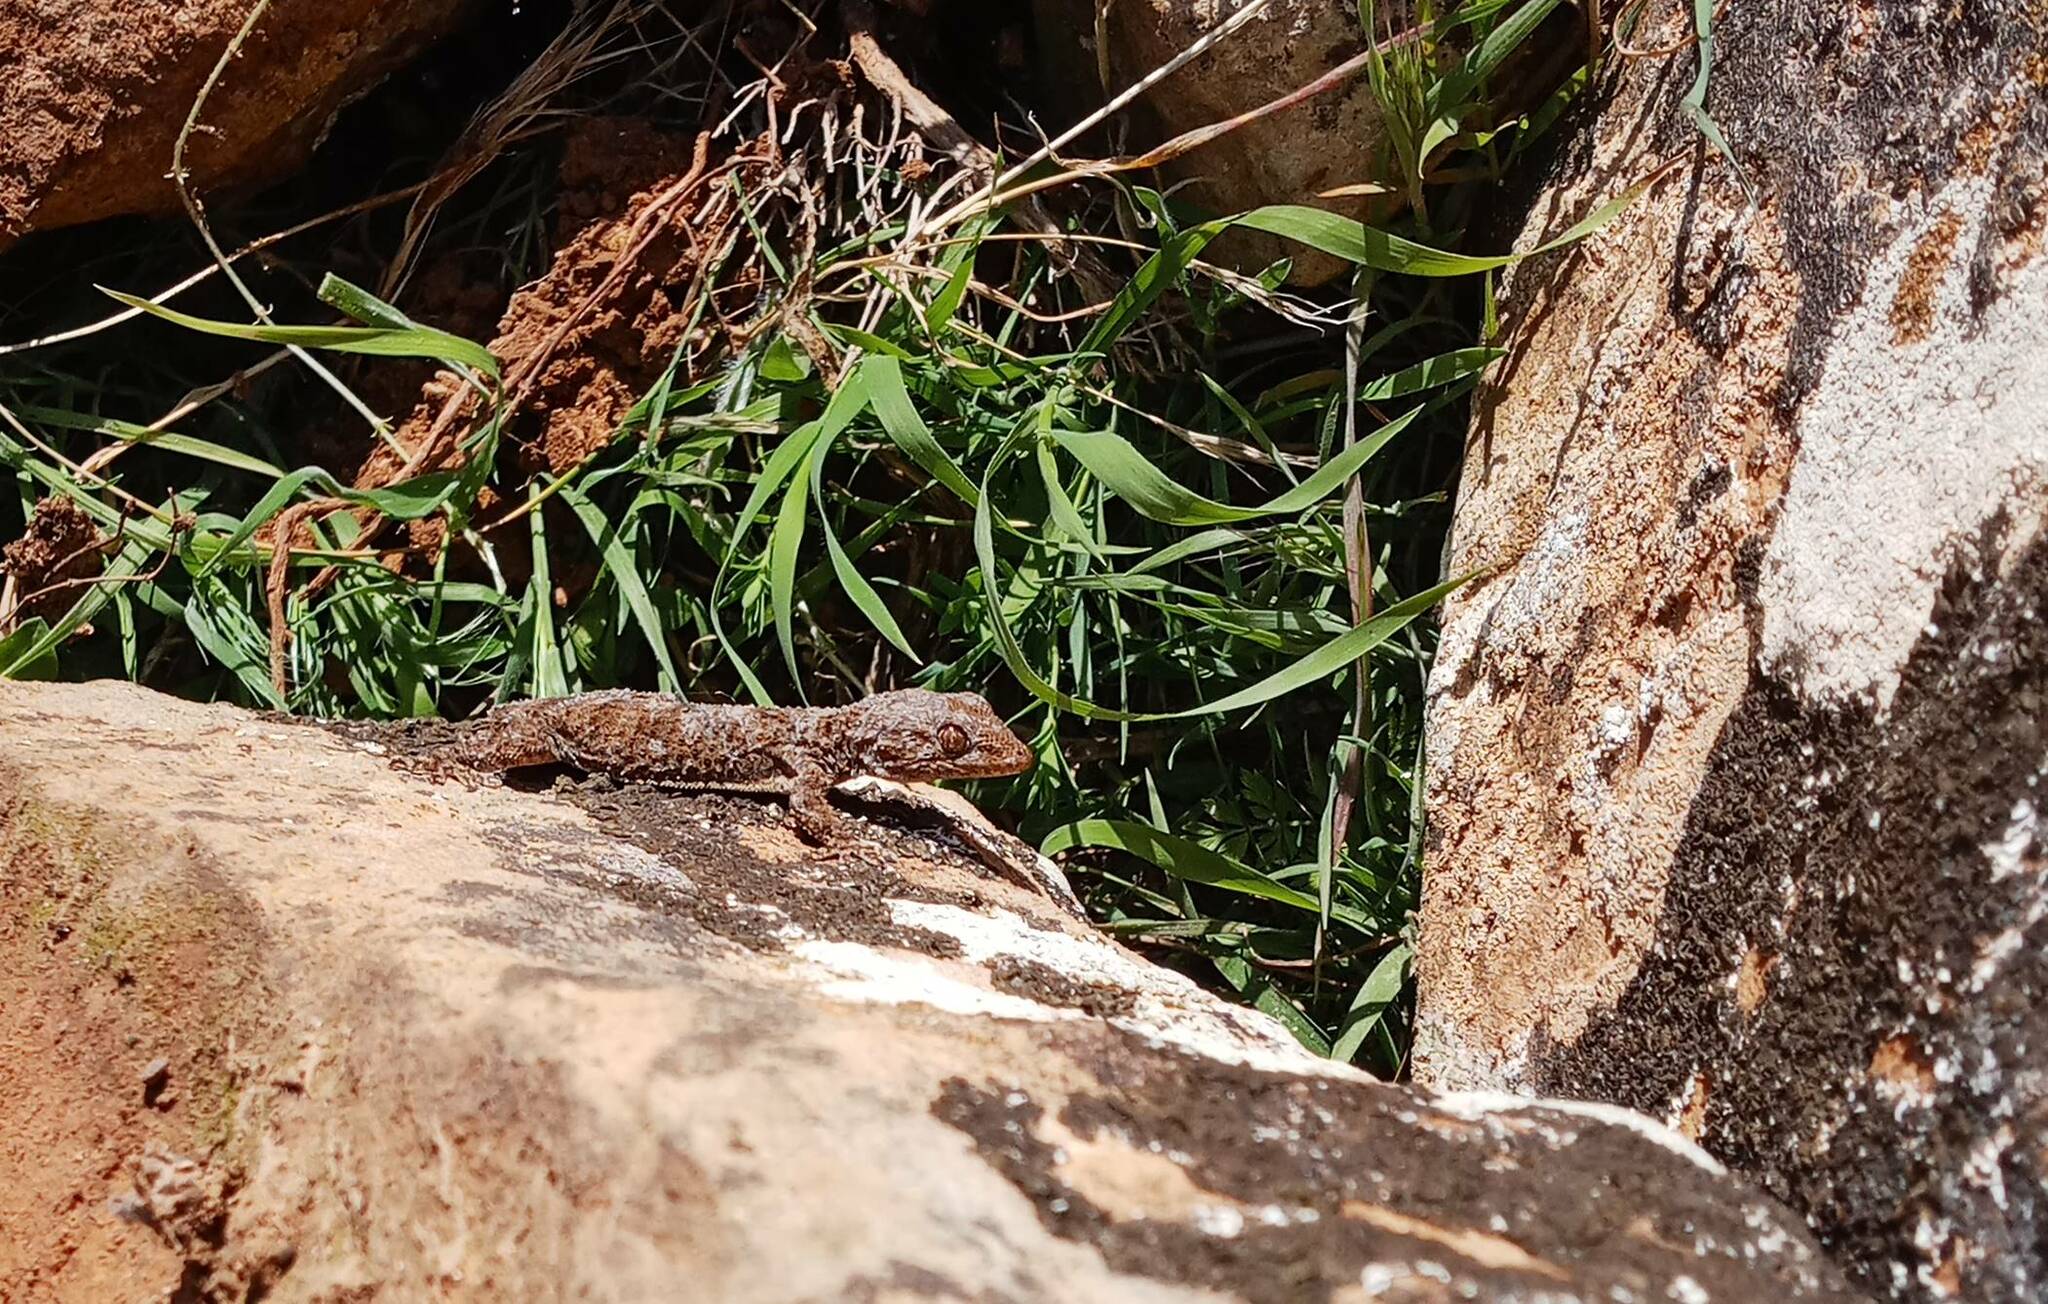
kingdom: Animalia
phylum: Chordata
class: Squamata
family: Phyllodactylidae
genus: Tarentola
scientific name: Tarentola mauritanica
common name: Moorish gecko
